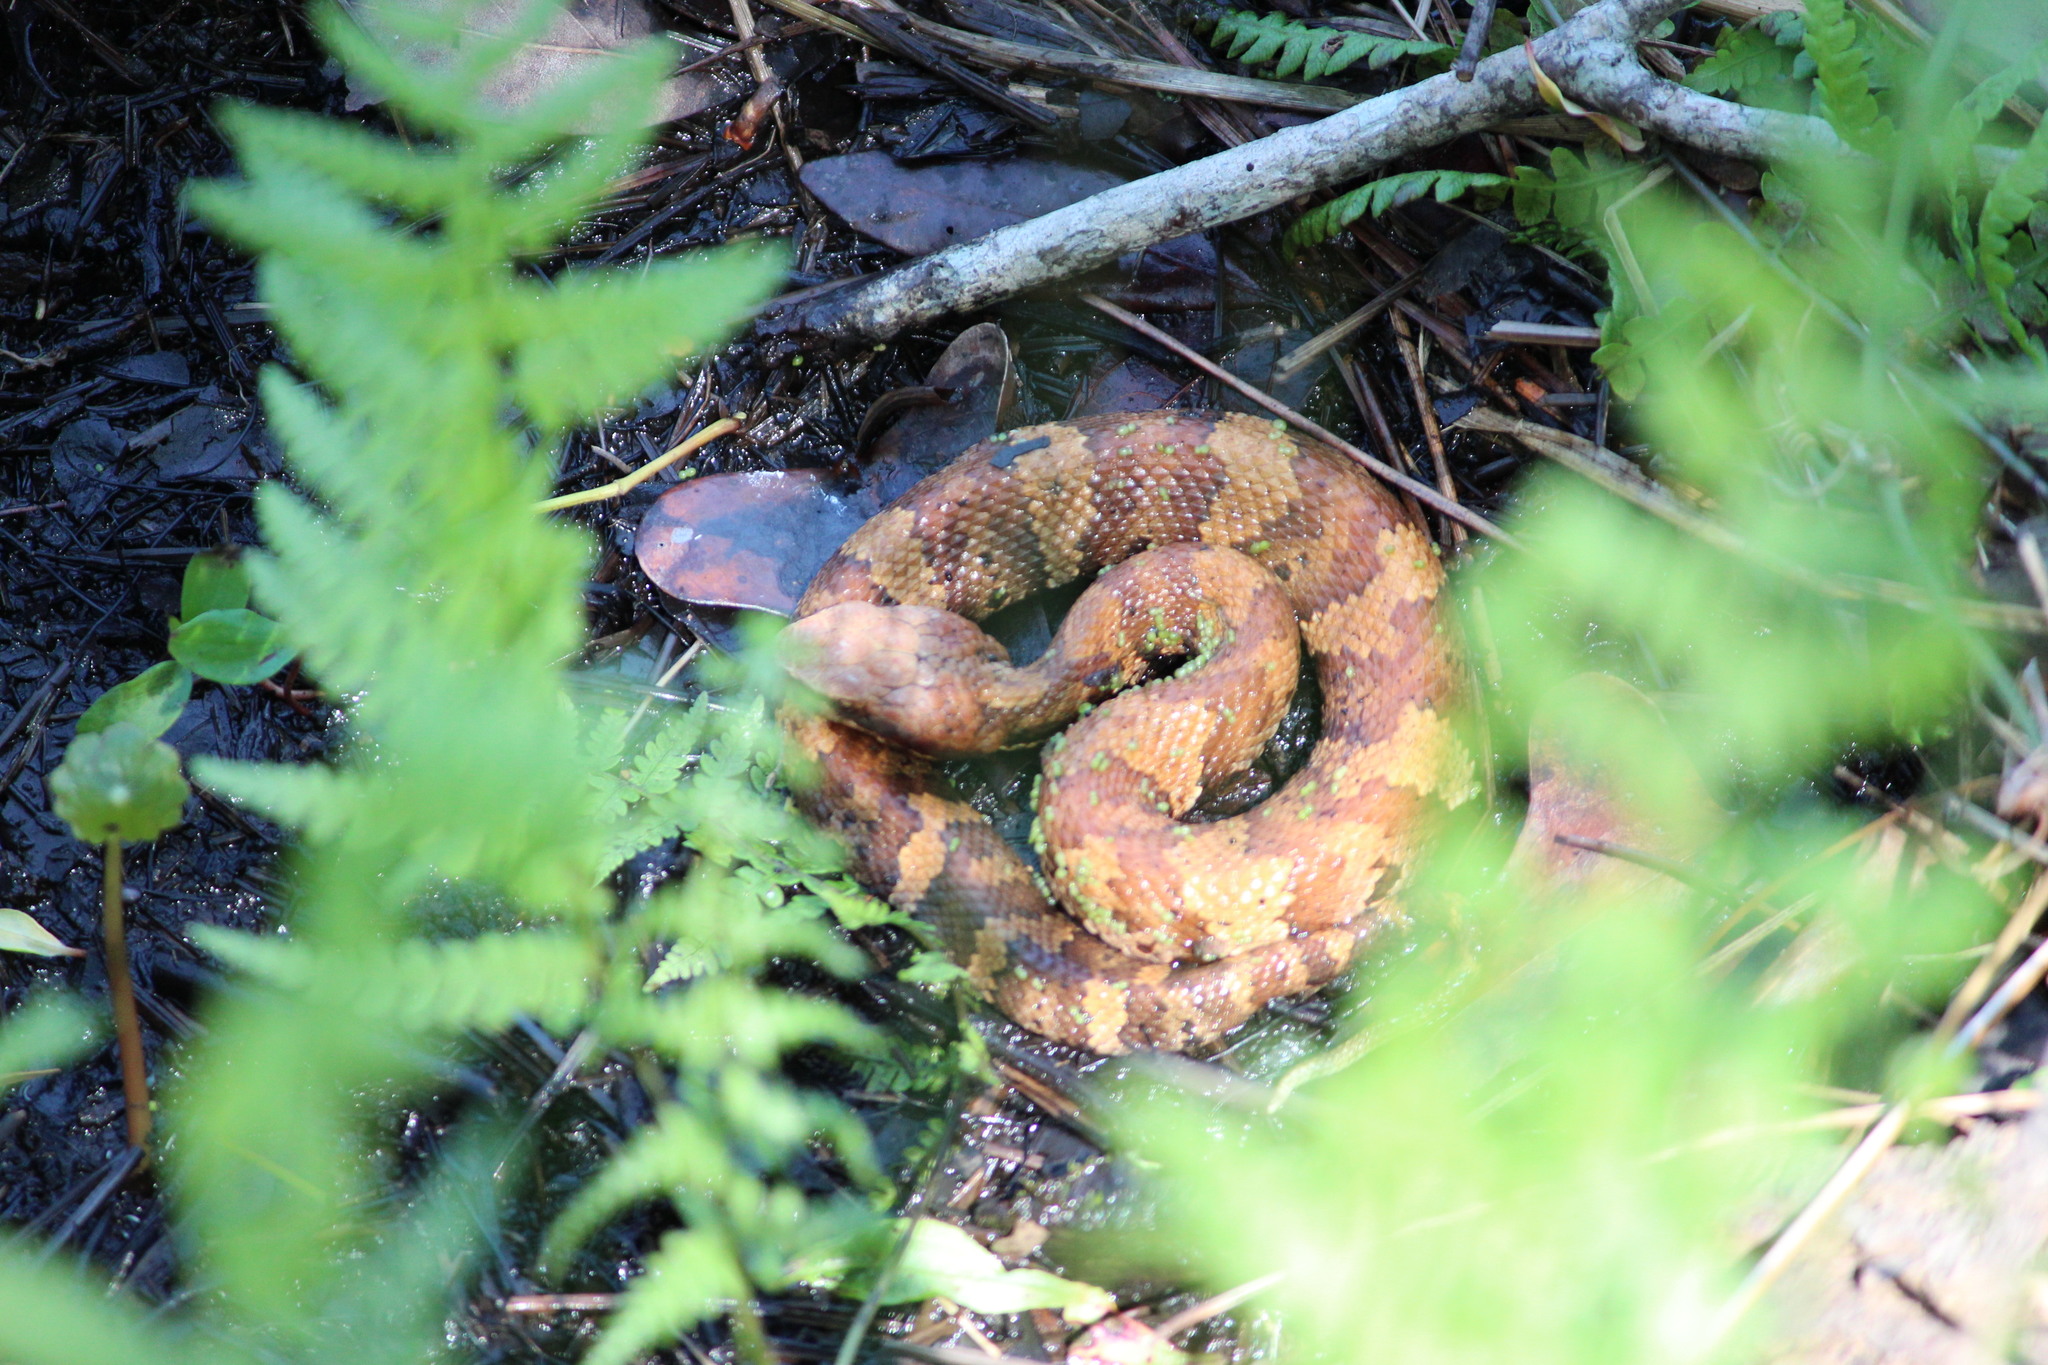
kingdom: Animalia
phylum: Chordata
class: Squamata
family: Viperidae
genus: Agkistrodon
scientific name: Agkistrodon piscivorus
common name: Cottonmouth
